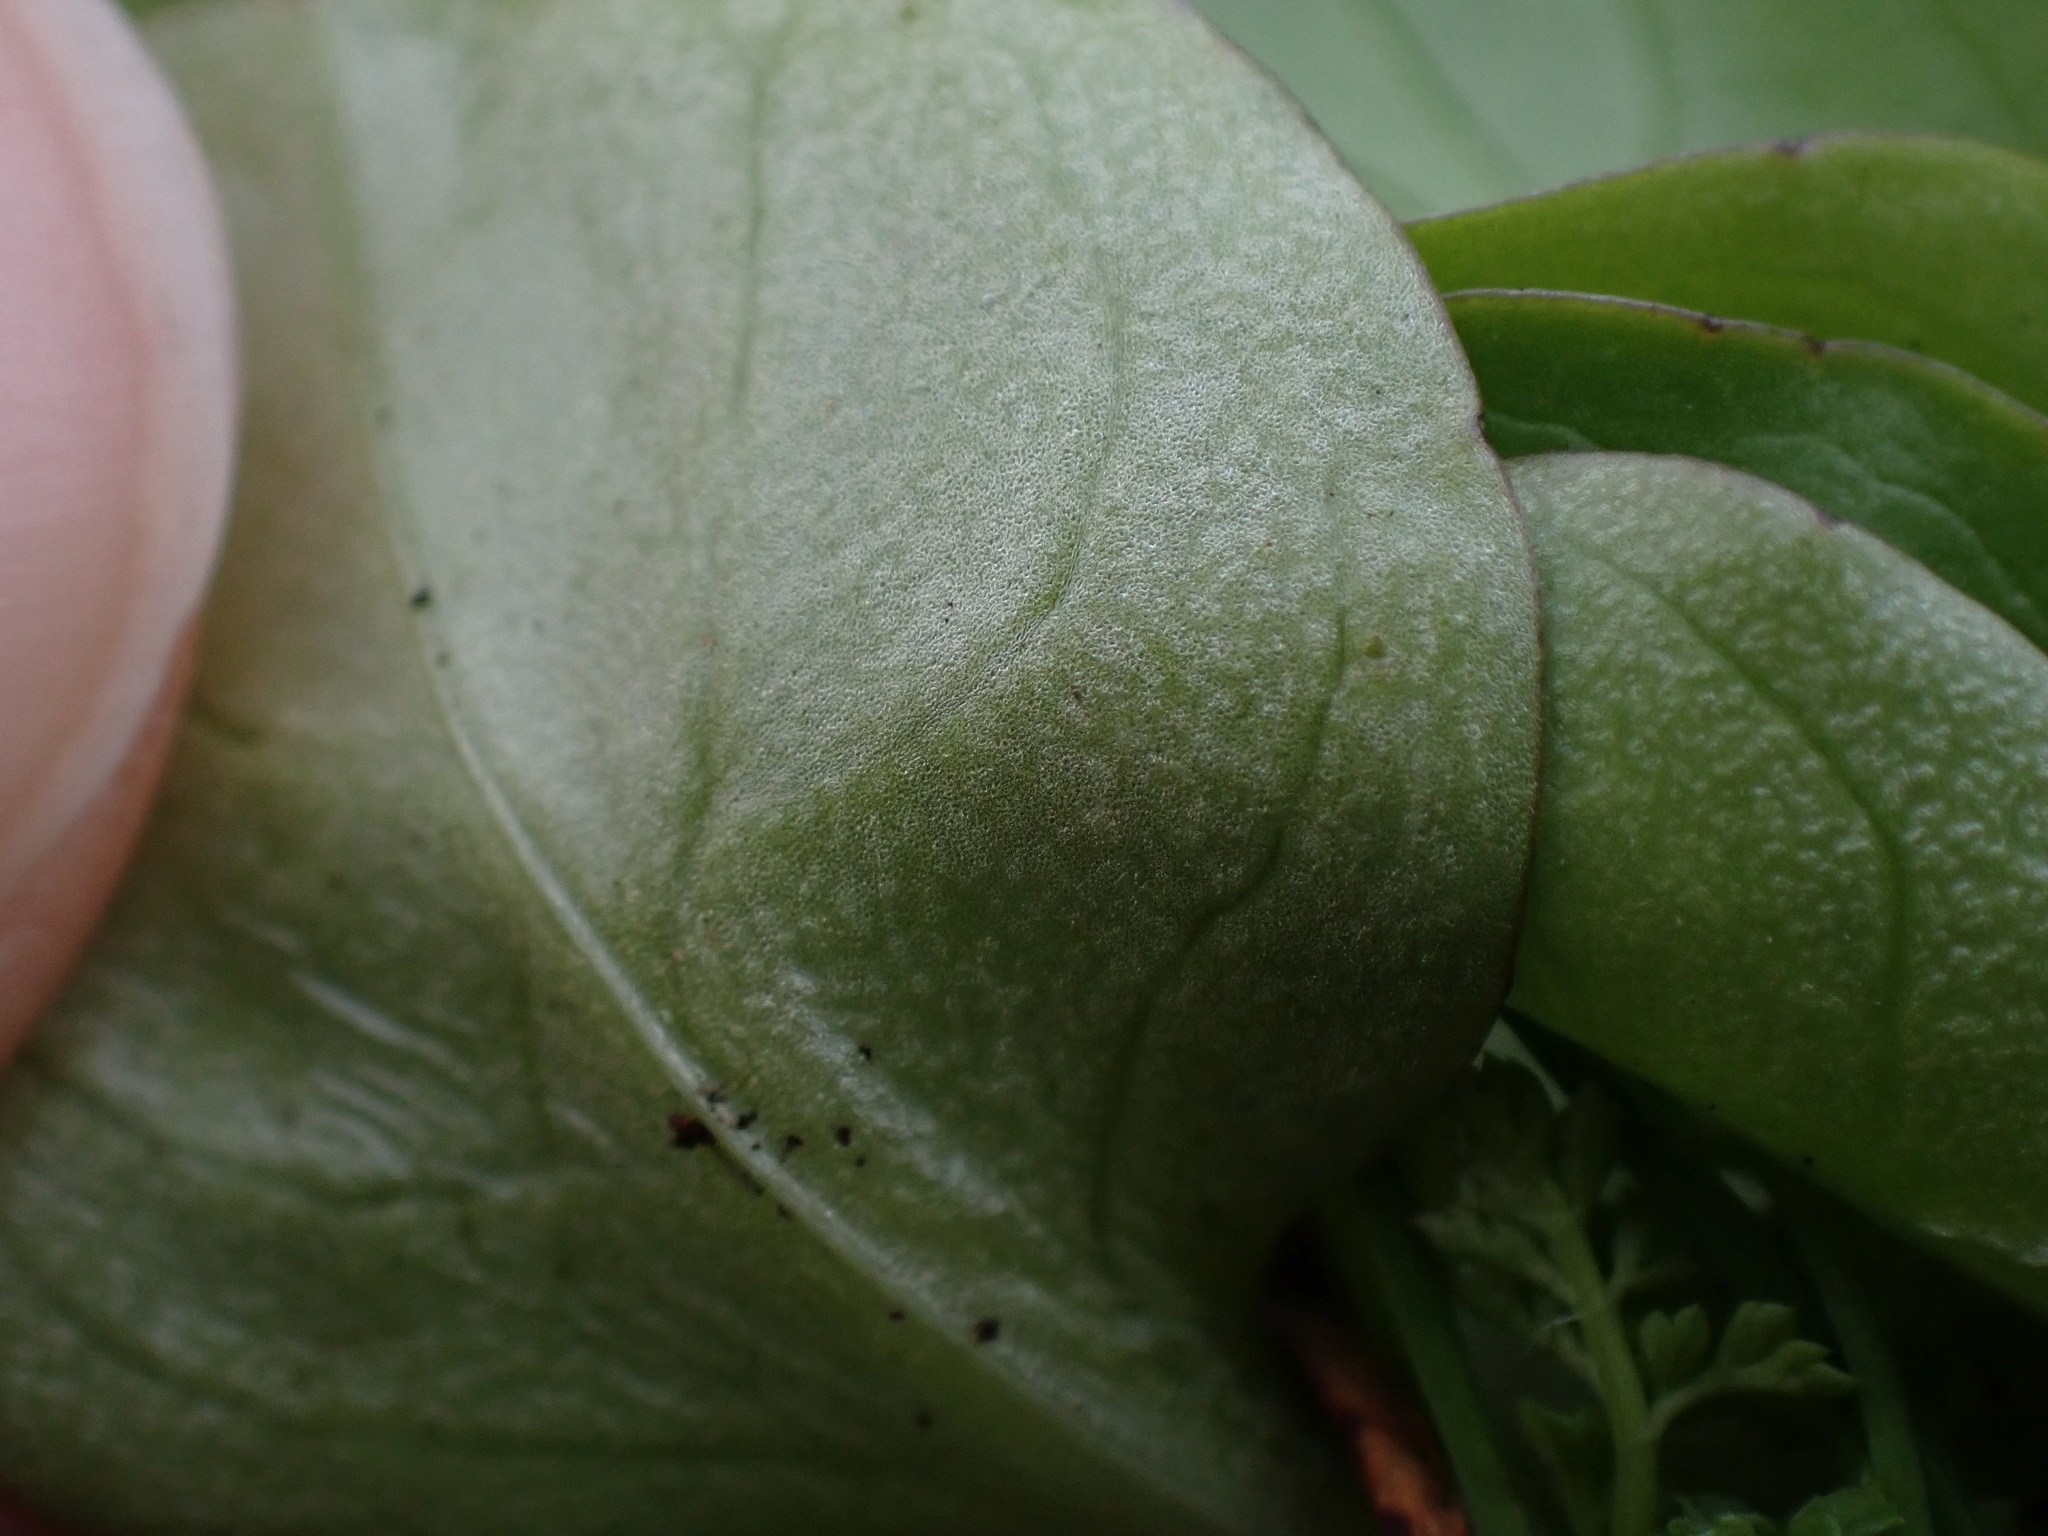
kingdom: Plantae
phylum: Tracheophyta
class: Magnoliopsida
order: Dipsacales
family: Caprifoliaceae
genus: Plectritis
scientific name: Plectritis congesta
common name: Pink plectritis
